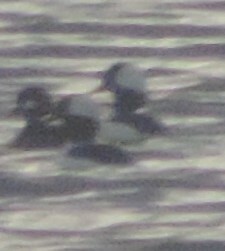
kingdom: Animalia
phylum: Chordata
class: Aves
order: Anseriformes
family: Anatidae
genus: Bucephala
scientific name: Bucephala albeola
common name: Bufflehead
